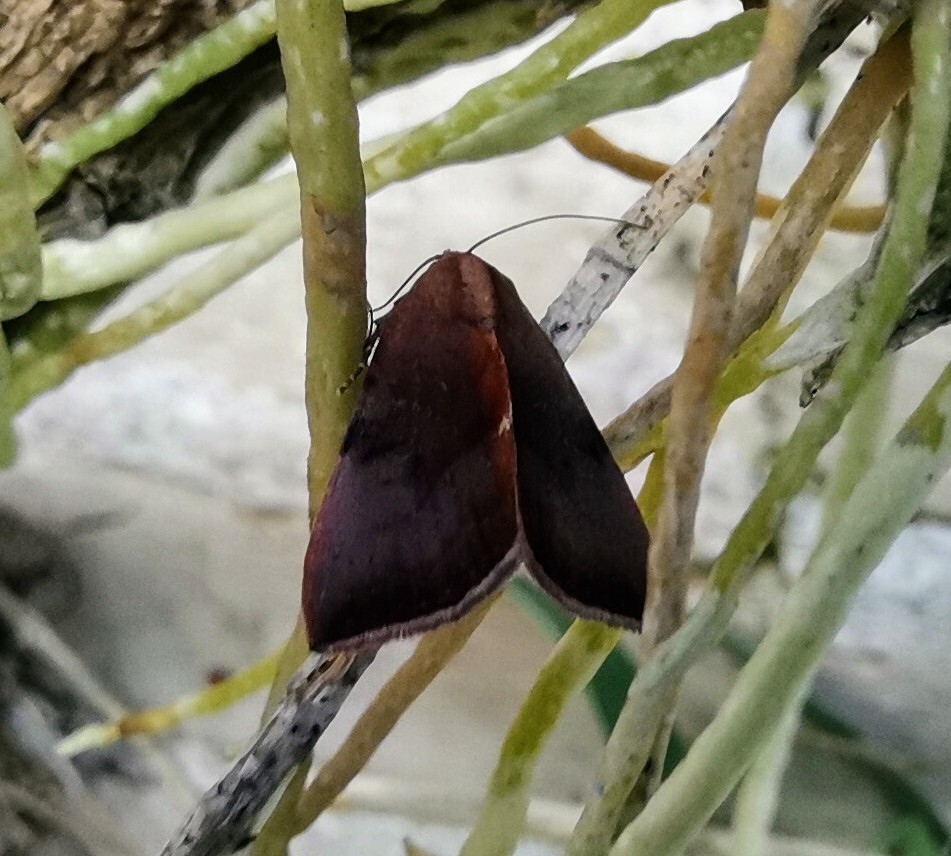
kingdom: Animalia
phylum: Arthropoda
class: Insecta
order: Lepidoptera
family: Noctuidae
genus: Galgula
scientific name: Galgula partita
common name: Wedgeling
